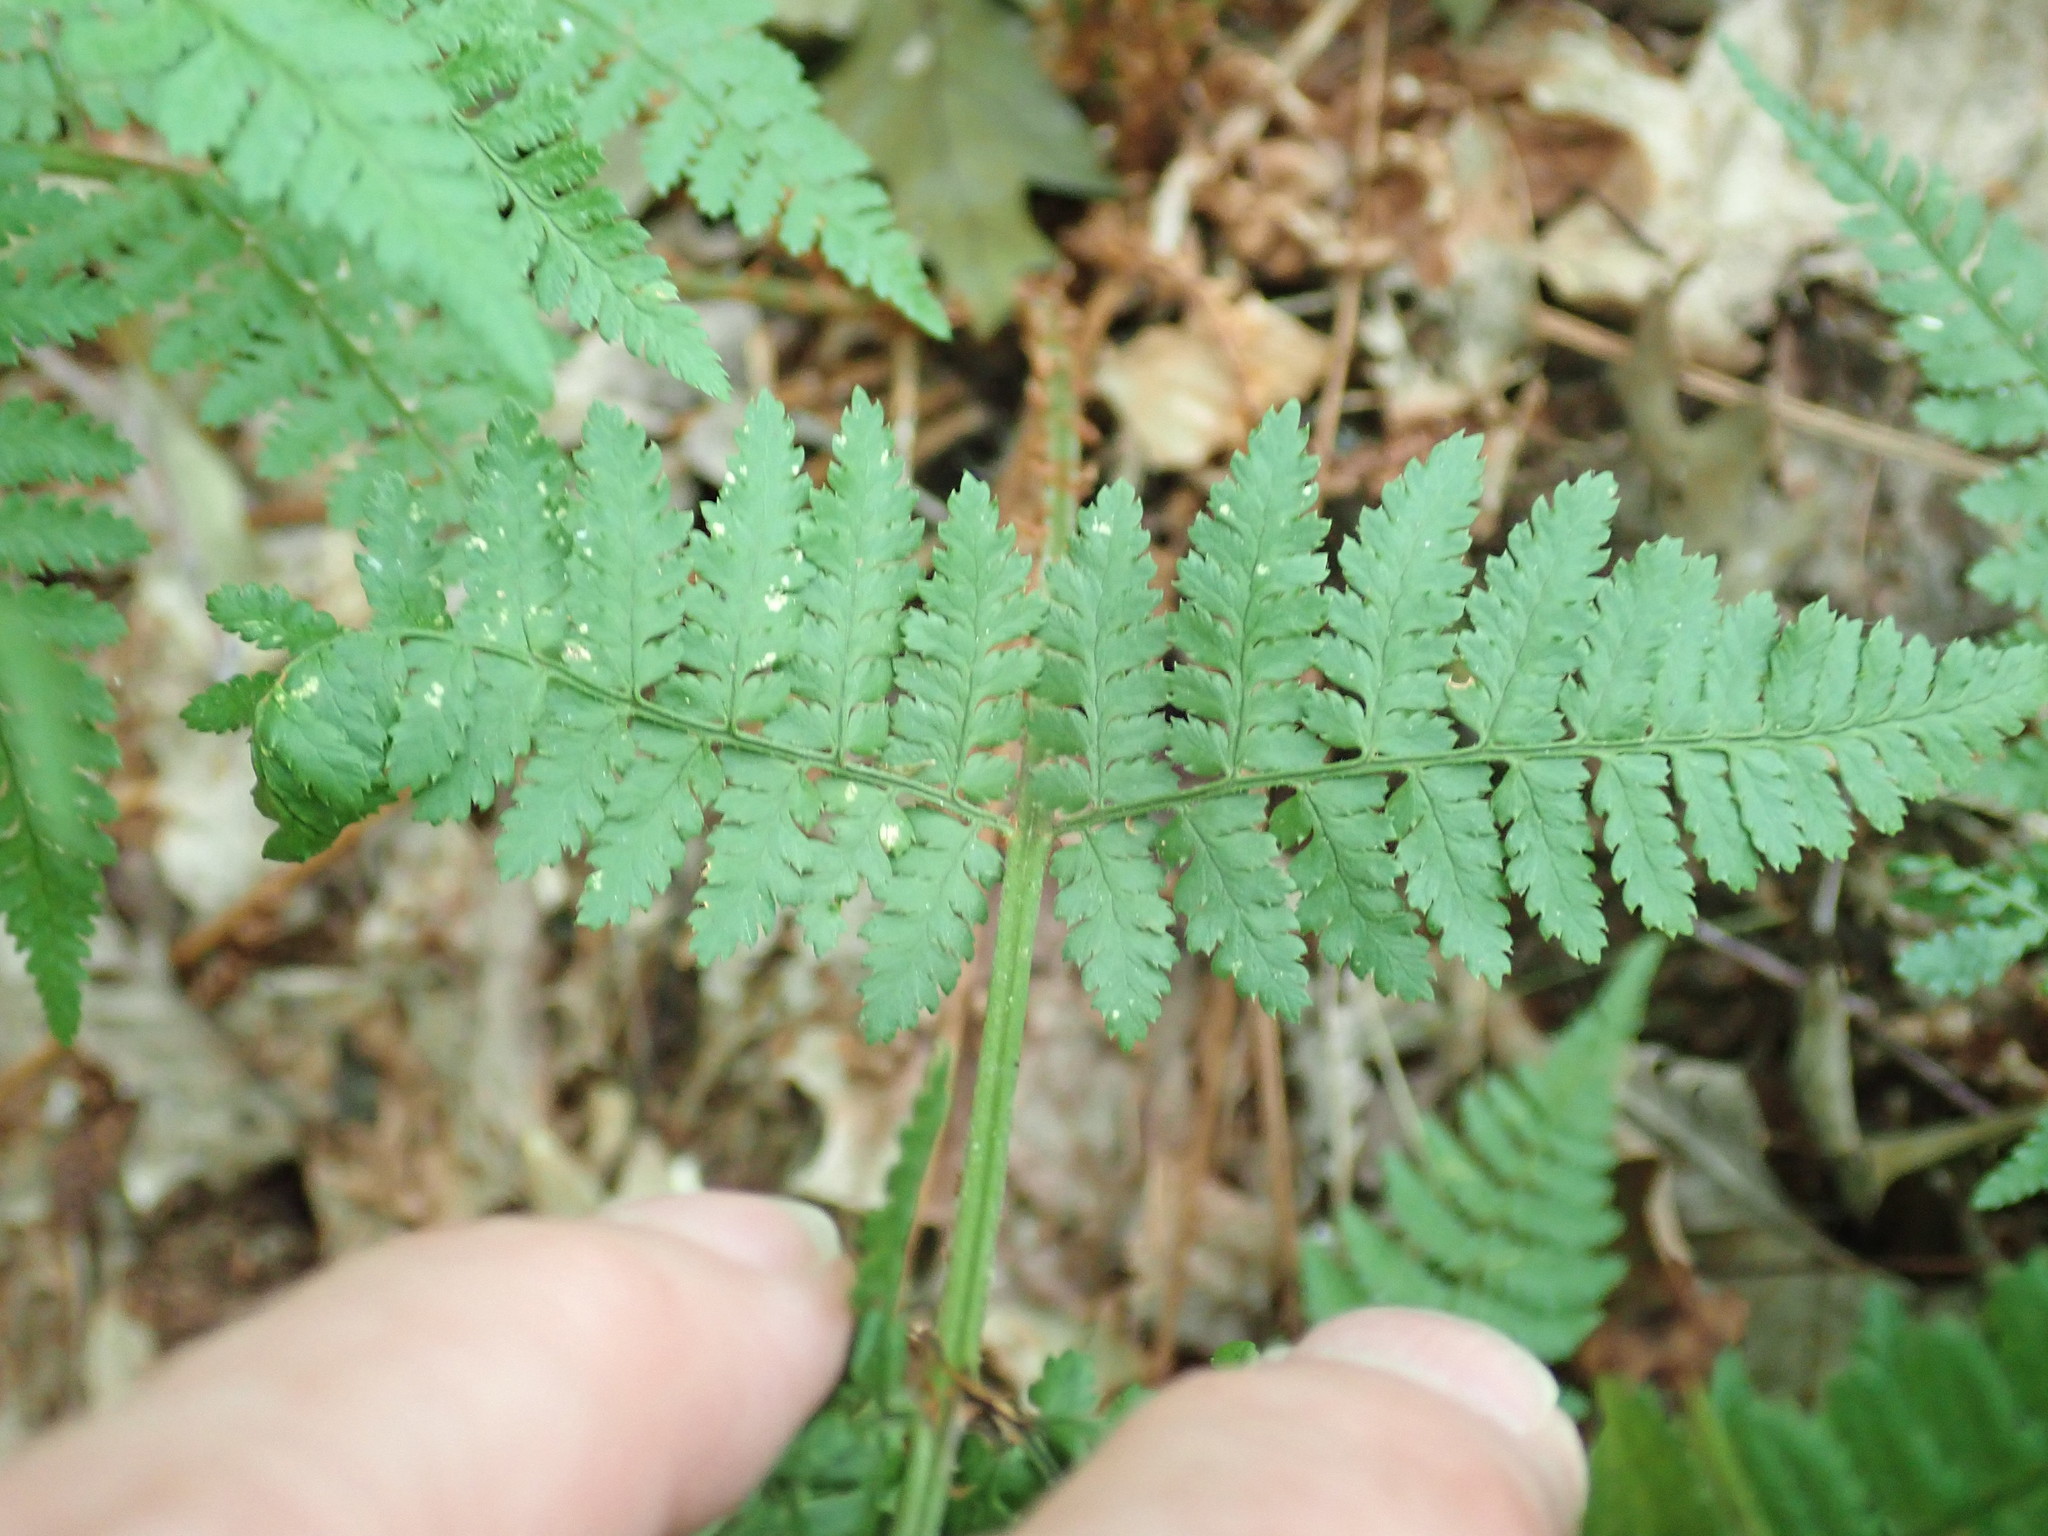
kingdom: Plantae
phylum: Tracheophyta
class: Polypodiopsida
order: Polypodiales
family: Dryopteridaceae
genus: Dryopteris
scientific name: Dryopteris intermedia
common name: Evergreen wood fern
